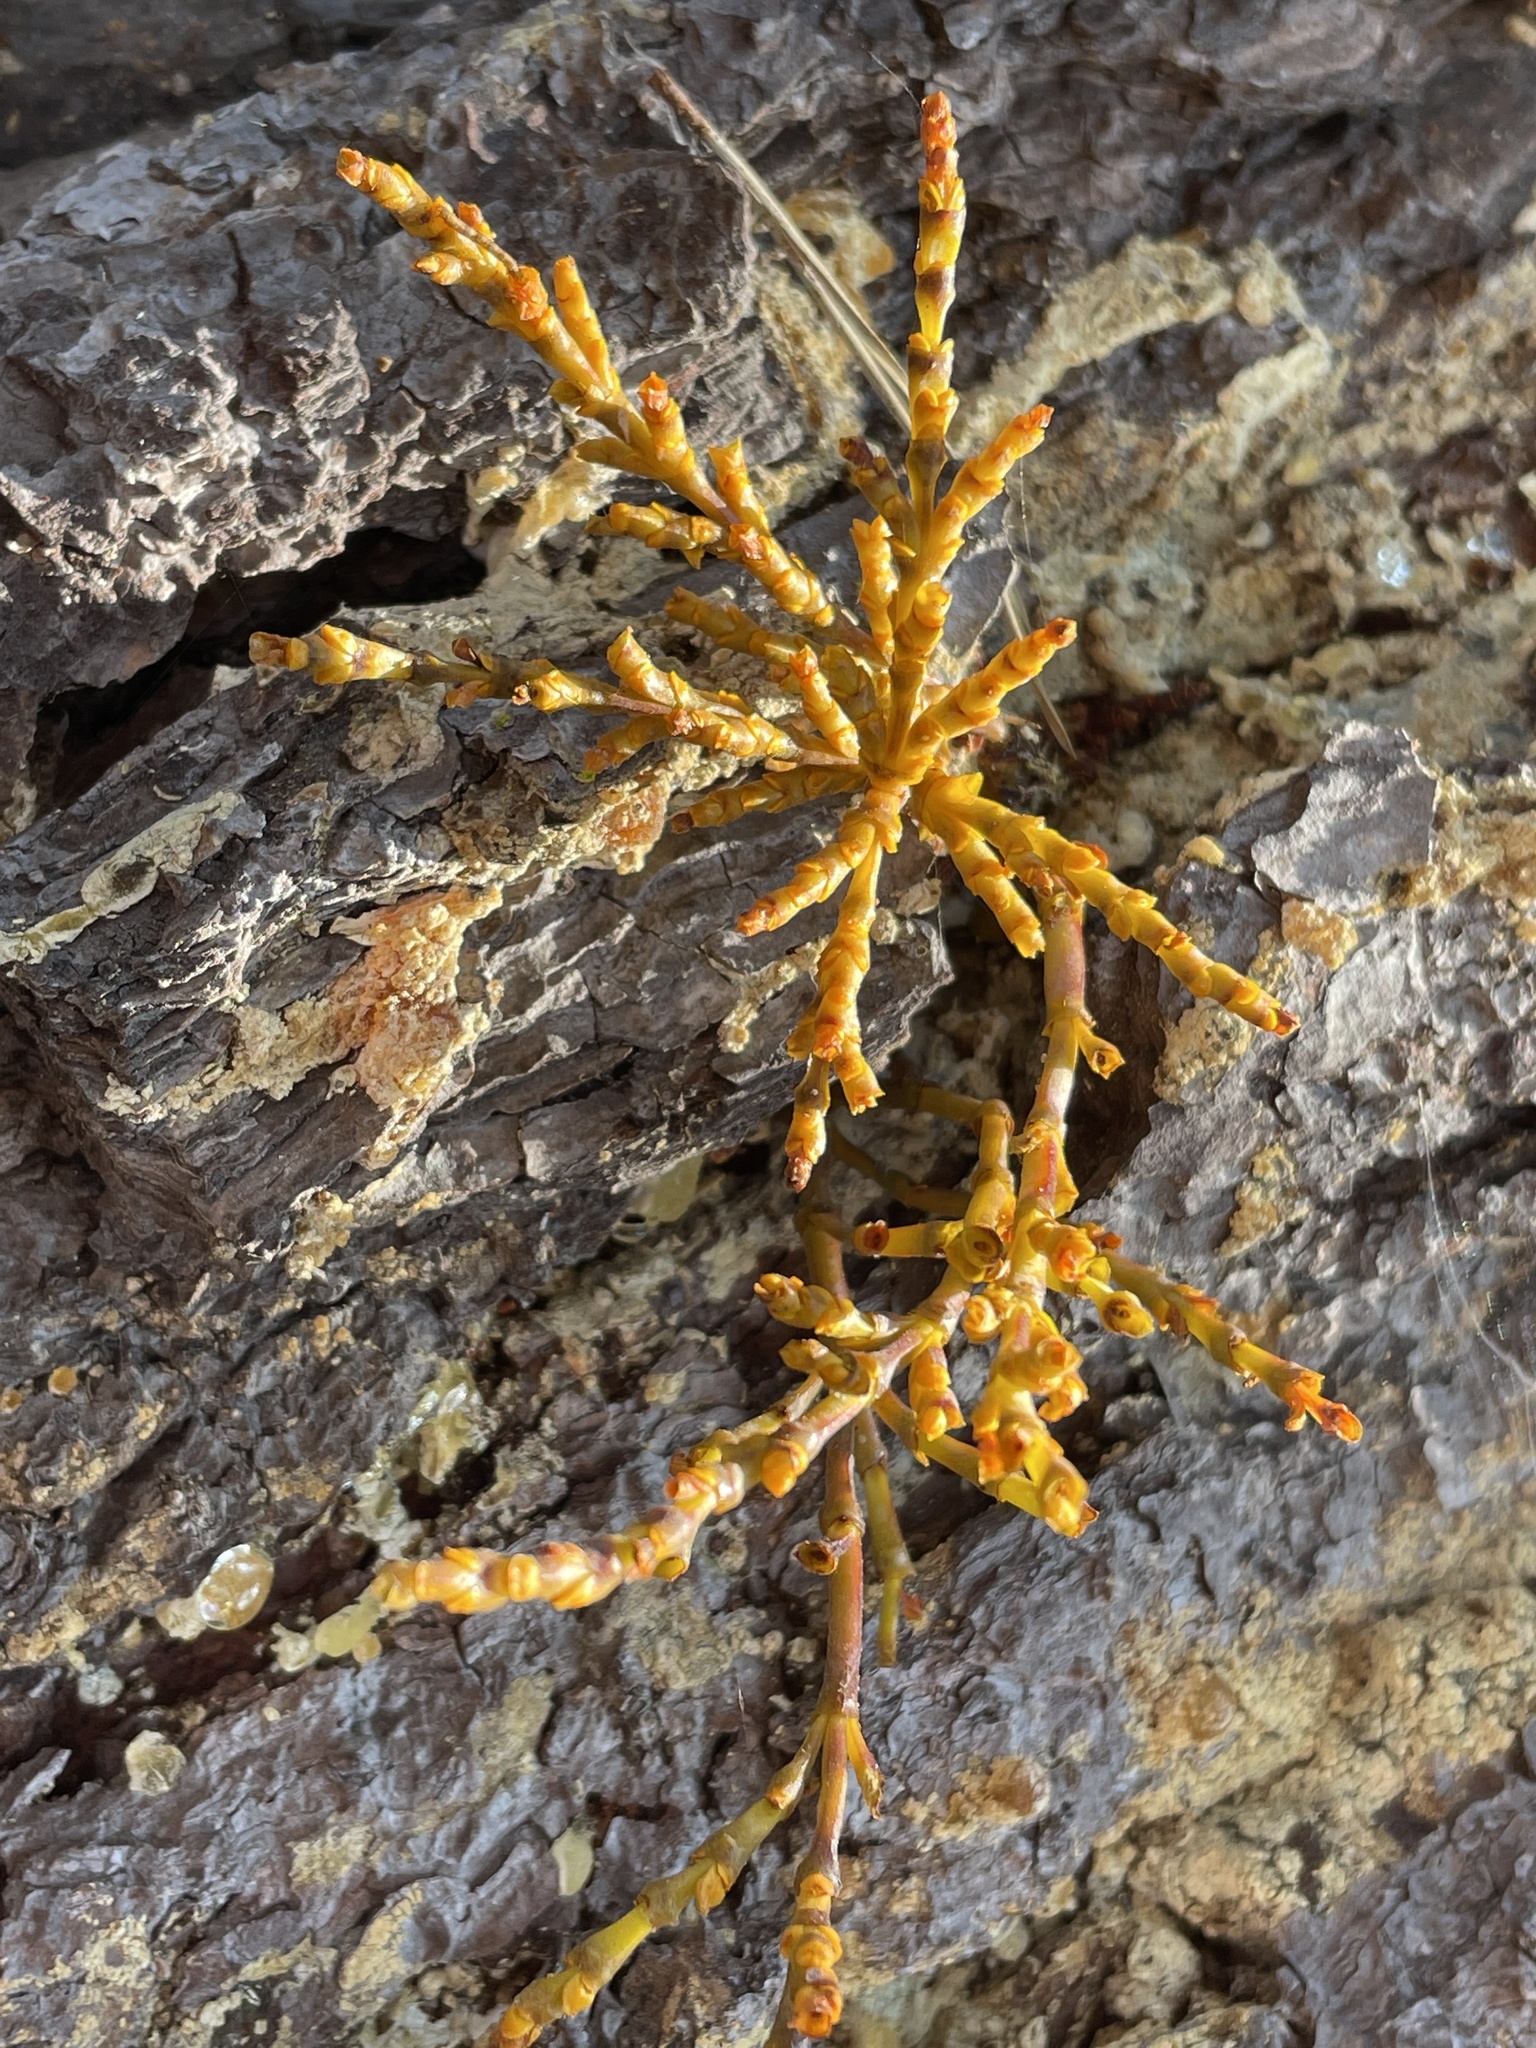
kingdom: Plantae
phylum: Tracheophyta
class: Magnoliopsida
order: Santalales
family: Viscaceae
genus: Arceuthobium
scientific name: Arceuthobium campylopodum
